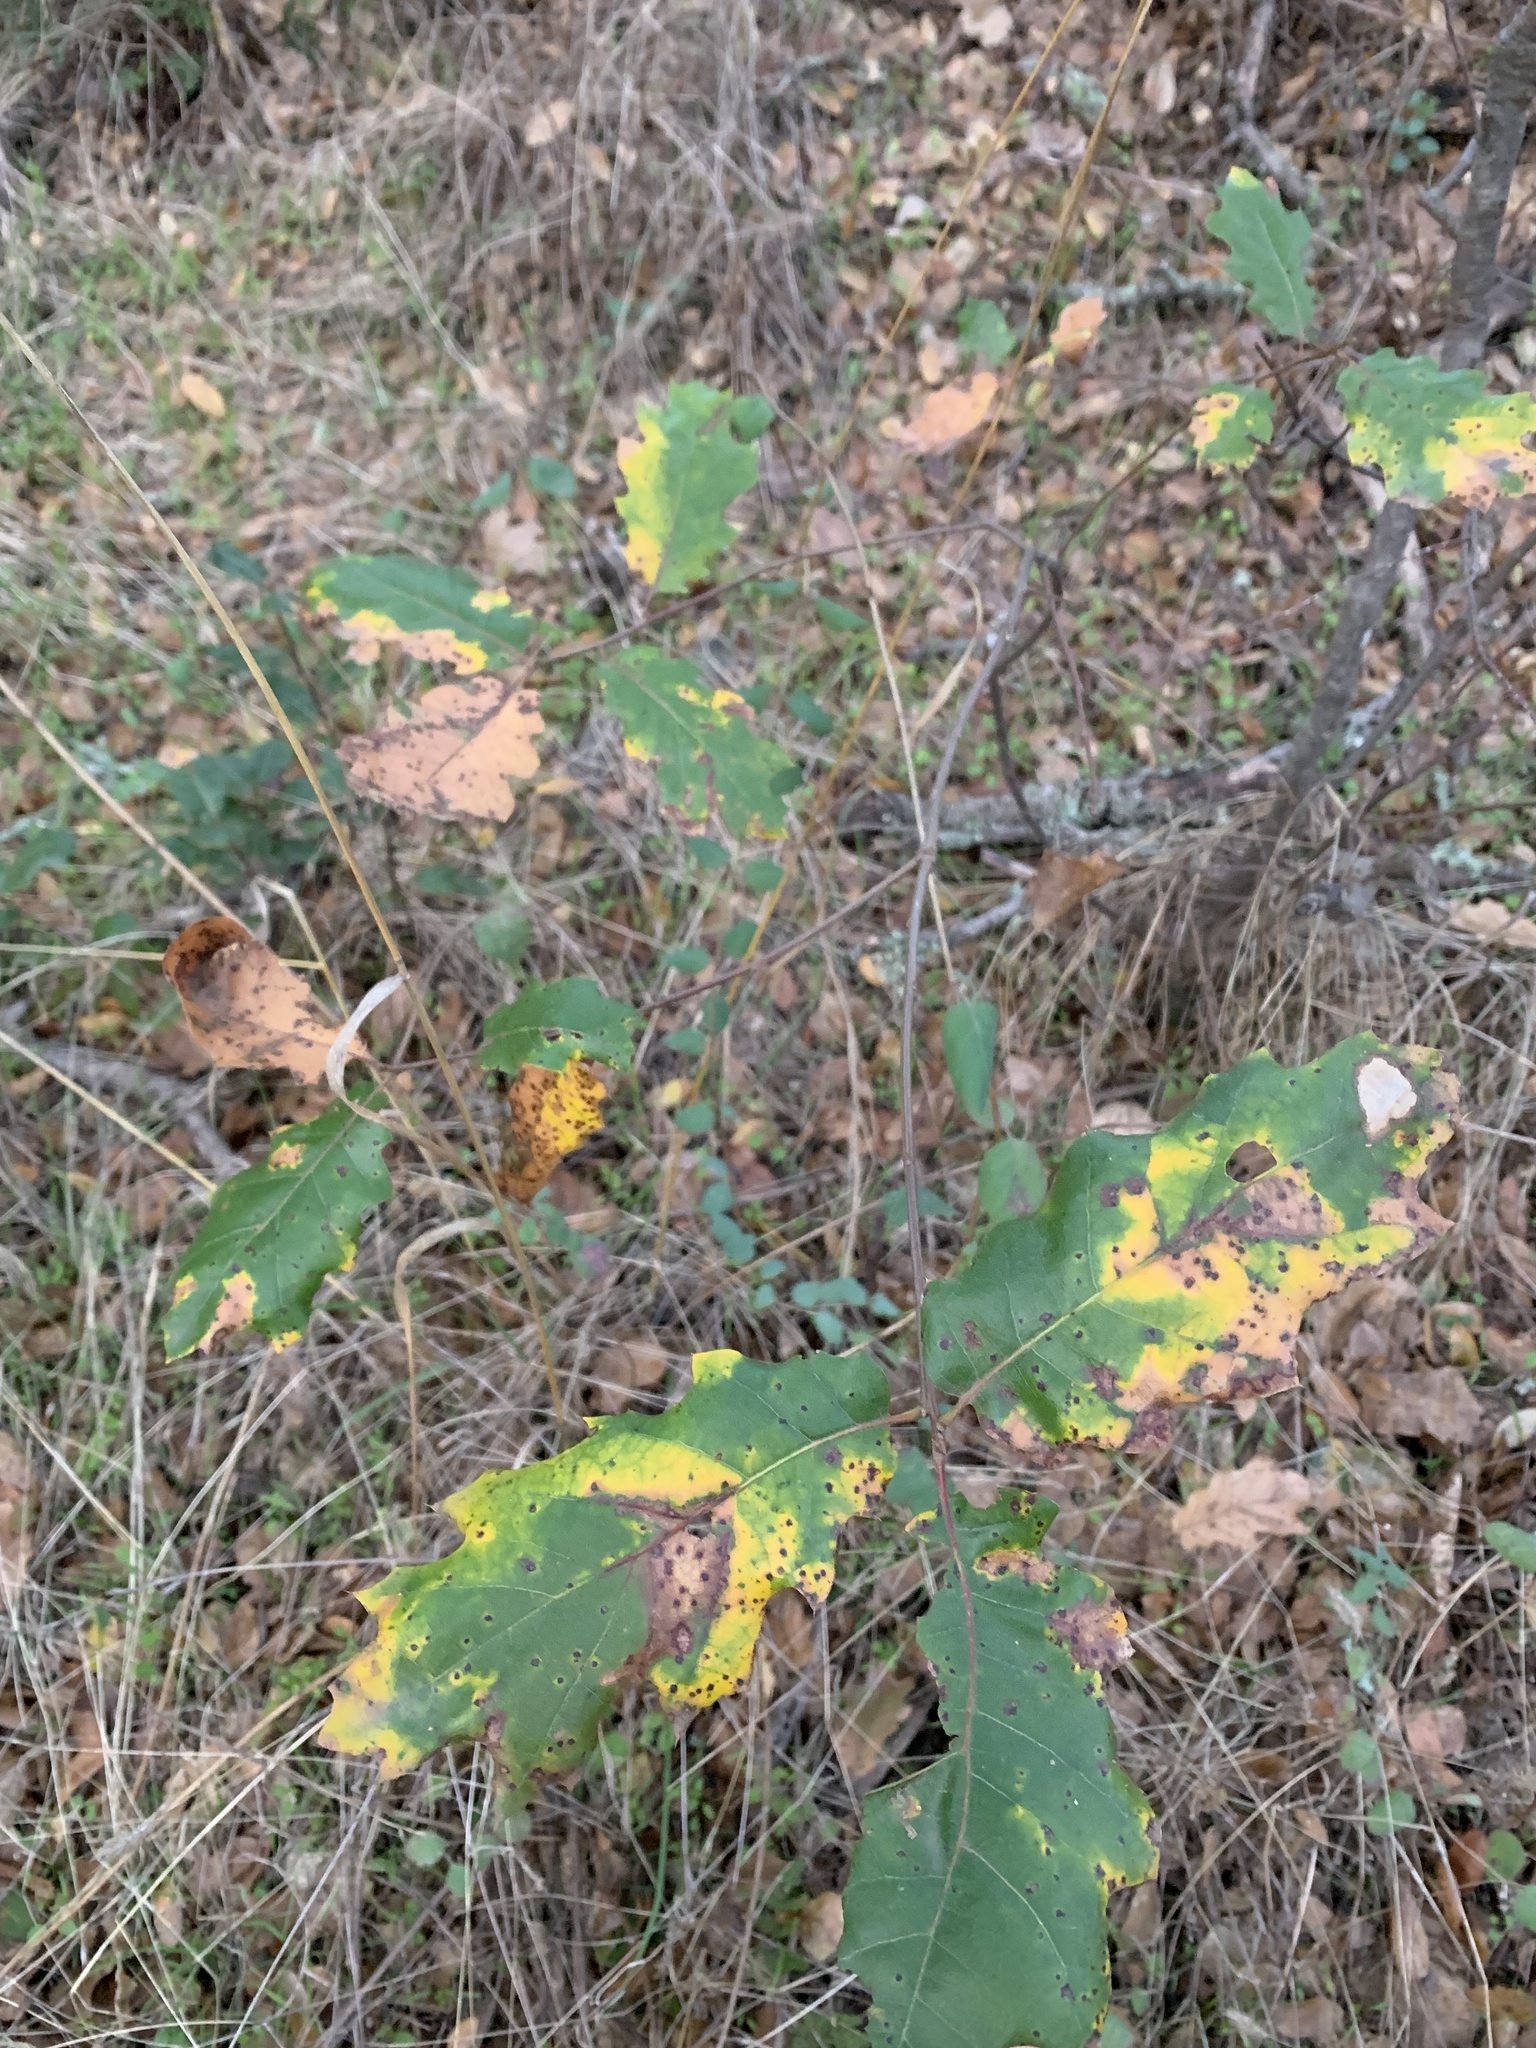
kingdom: Plantae
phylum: Tracheophyta
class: Magnoliopsida
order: Fagales
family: Fagaceae
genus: Quercus
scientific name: Quercus morehus
